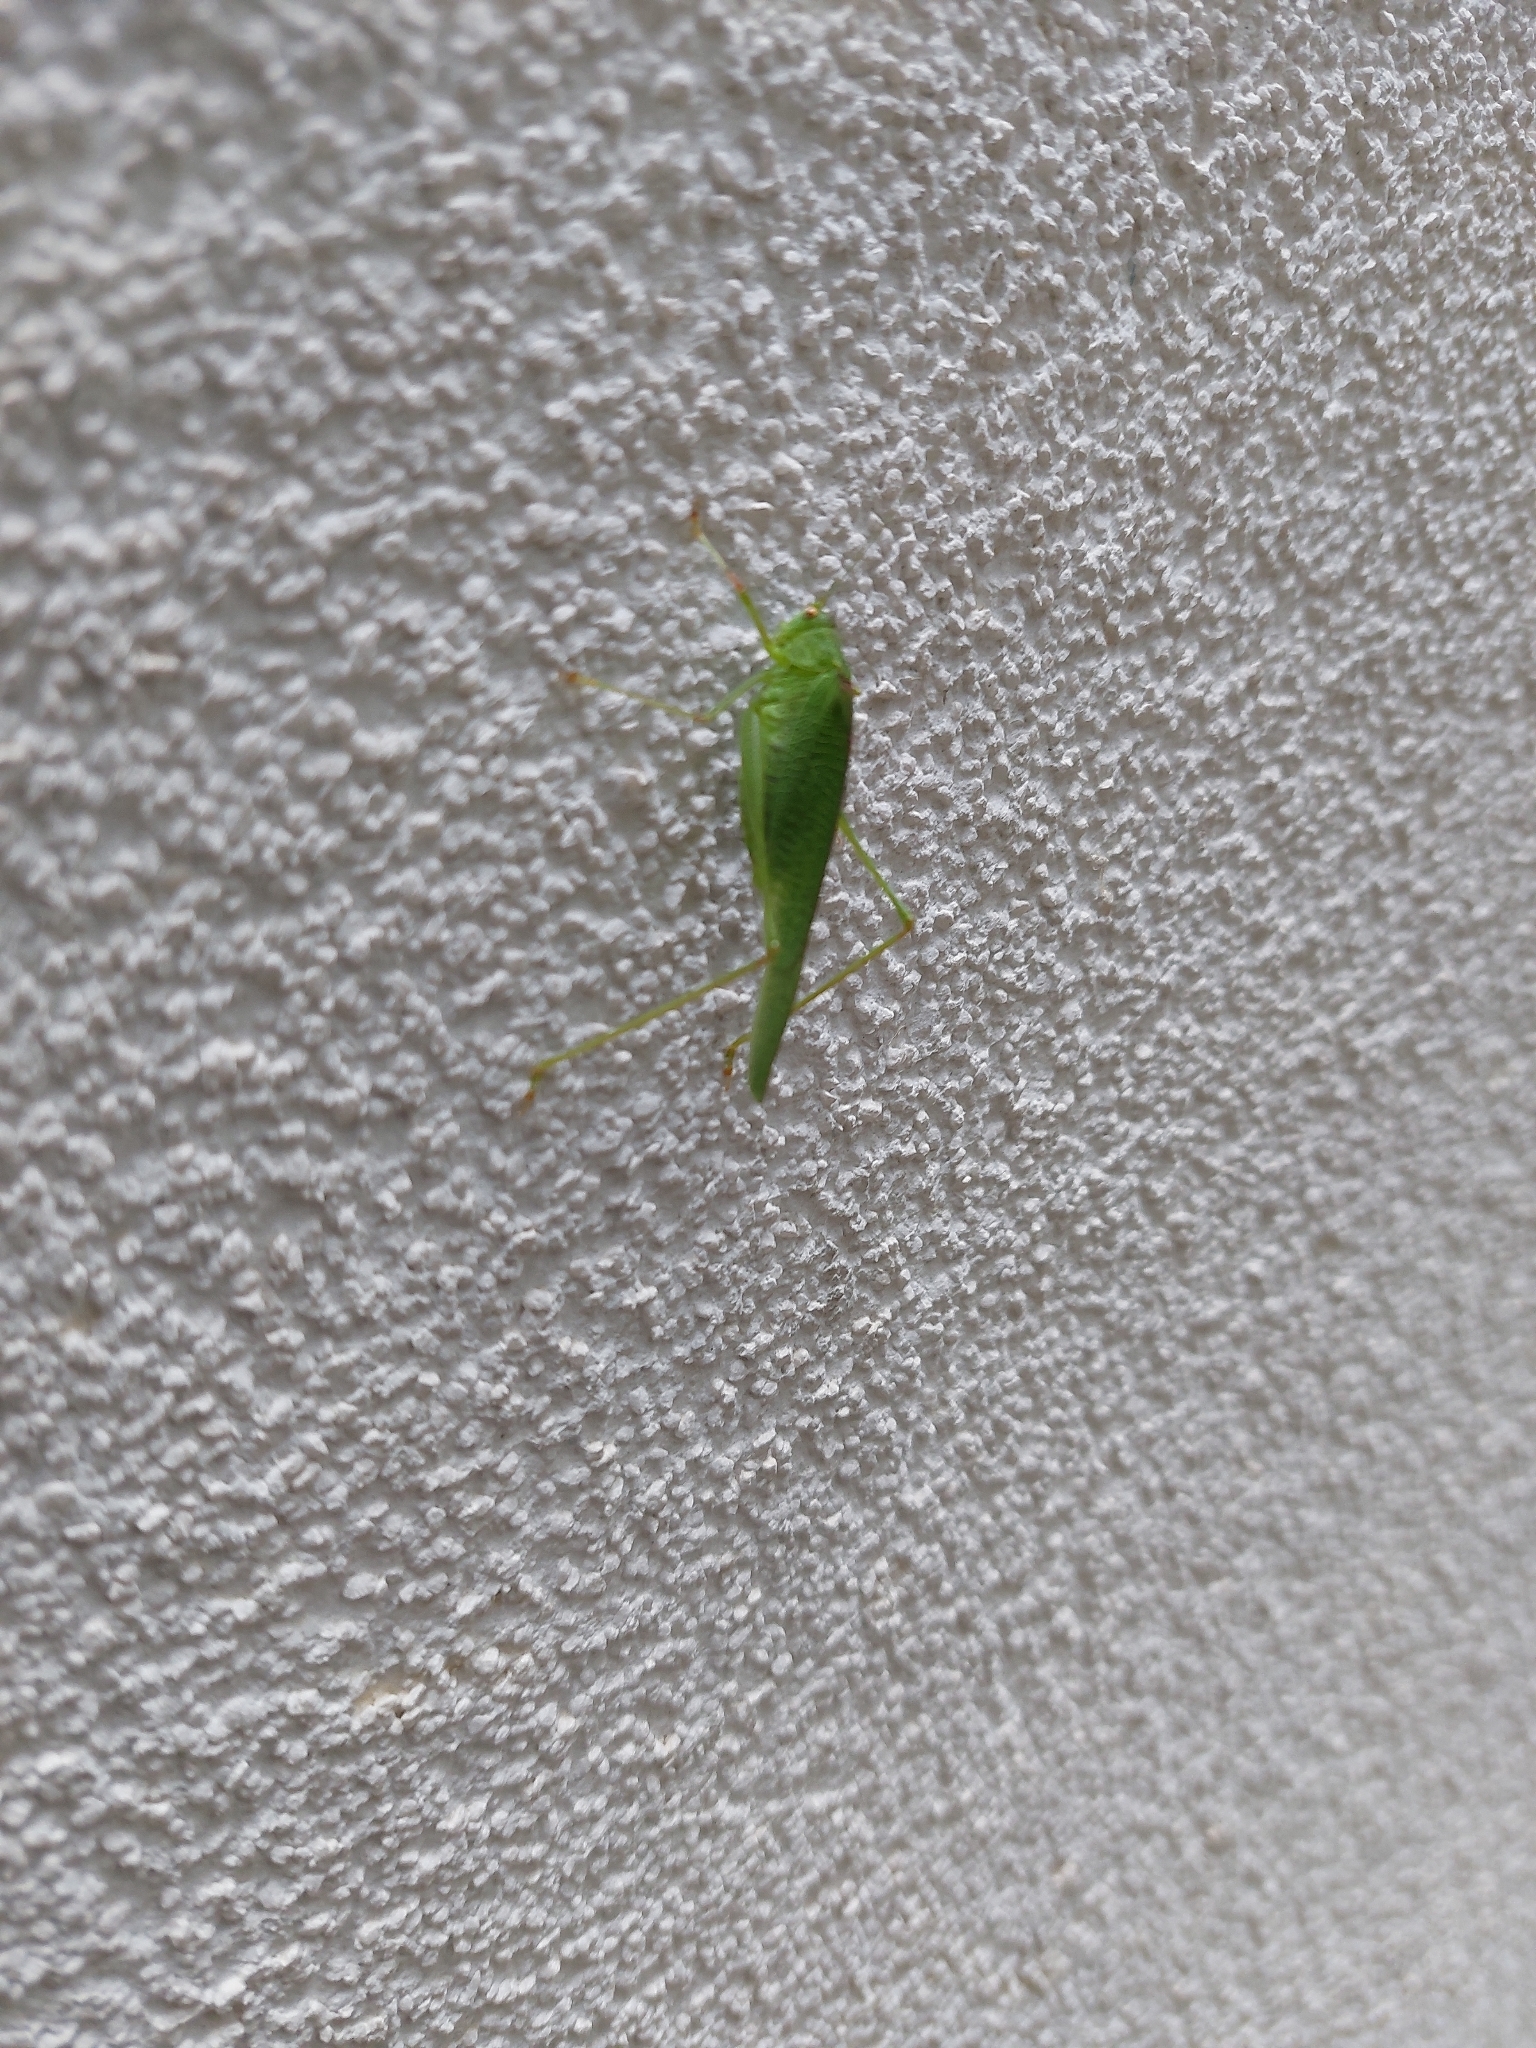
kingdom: Animalia
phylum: Arthropoda
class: Insecta
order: Orthoptera
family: Tettigoniidae
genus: Phaneroptera
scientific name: Phaneroptera nana
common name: Southern sickle bush-cricket
